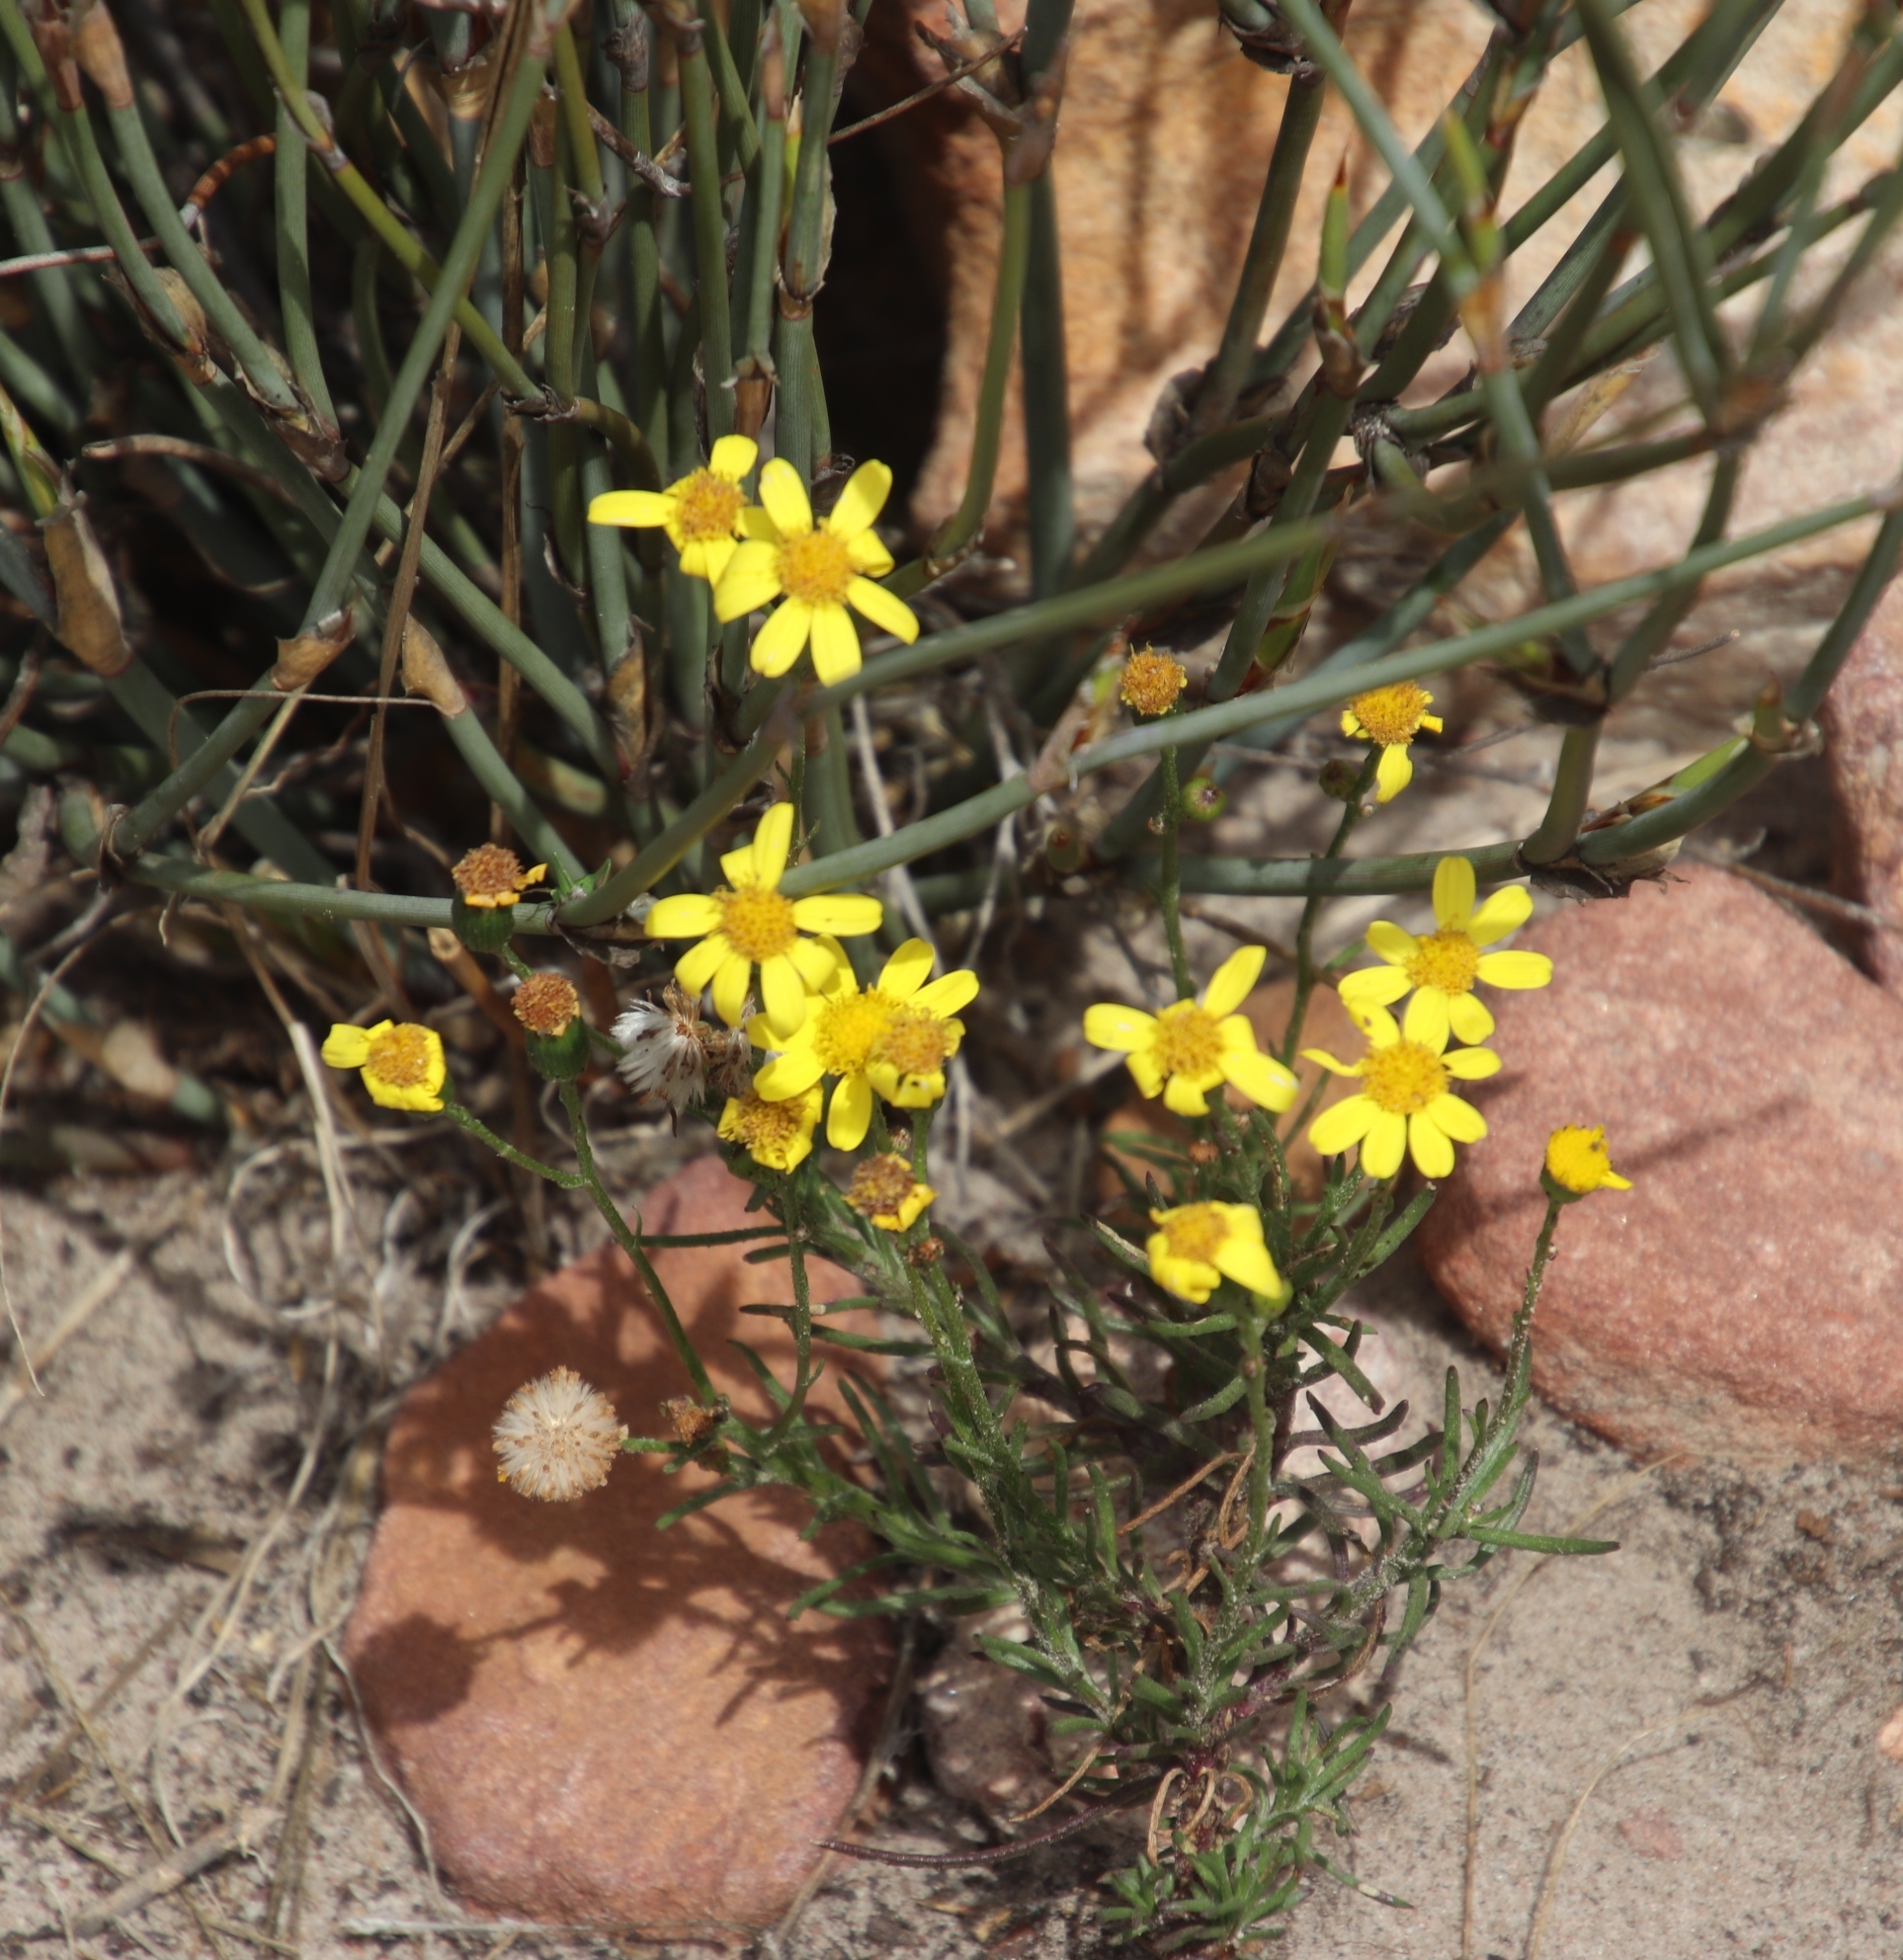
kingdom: Plantae
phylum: Tracheophyta
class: Magnoliopsida
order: Asterales
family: Asteraceae
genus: Senecio
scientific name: Senecio burchellii
